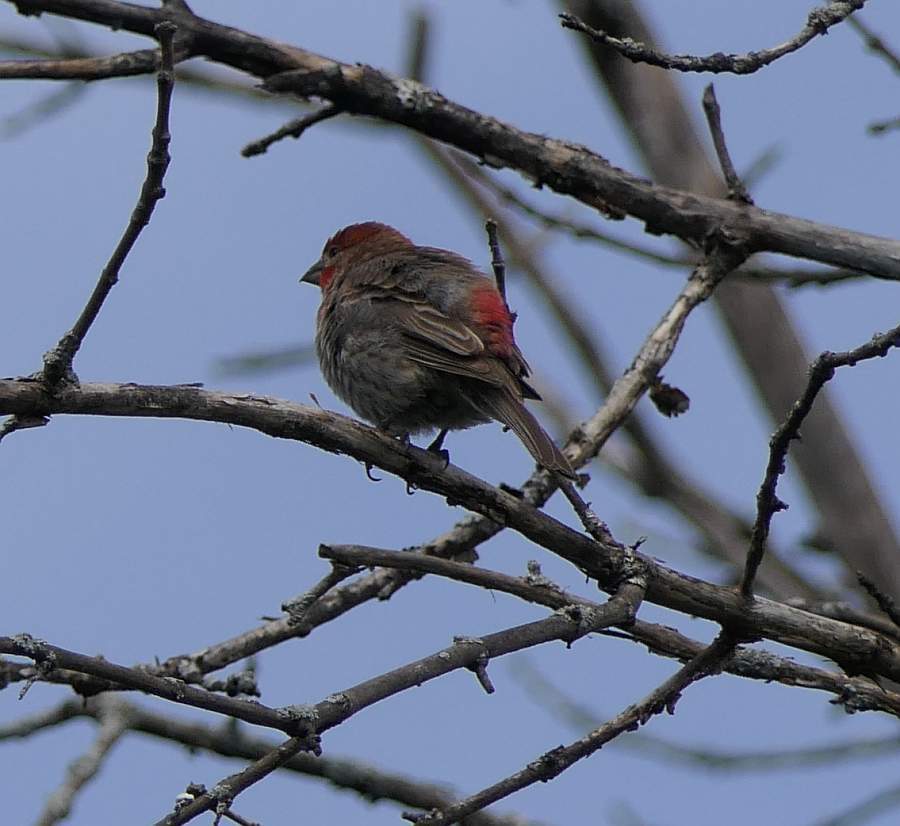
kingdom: Animalia
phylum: Chordata
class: Aves
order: Passeriformes
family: Fringillidae
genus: Haemorhous
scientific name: Haemorhous mexicanus
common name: House finch
